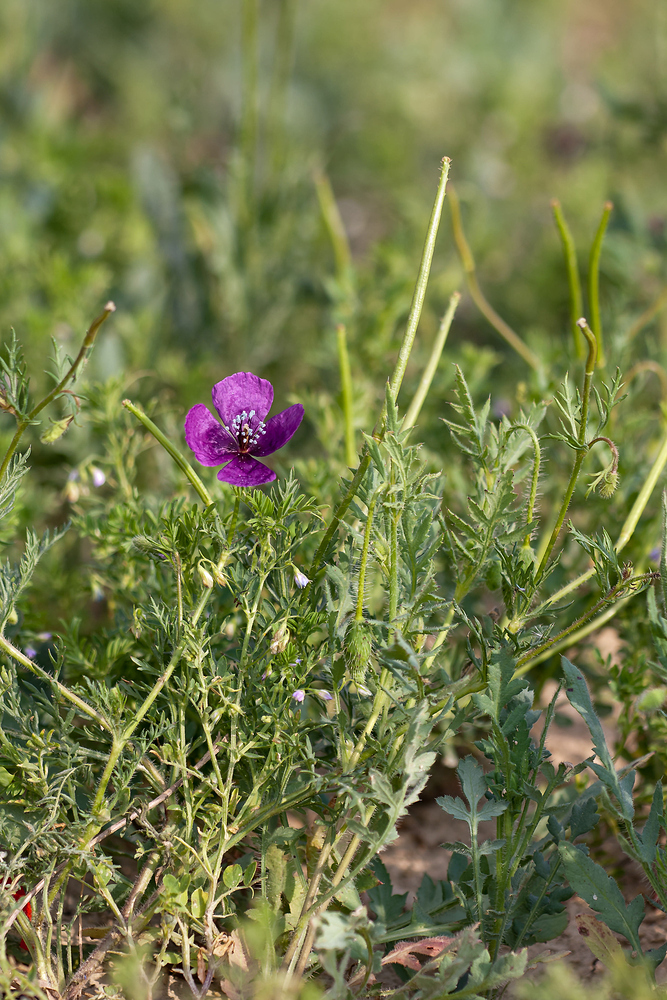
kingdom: Plantae
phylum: Tracheophyta
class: Magnoliopsida
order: Ranunculales
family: Papaveraceae
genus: Roemeria
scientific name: Roemeria hybrida
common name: Violet horned-poppy
